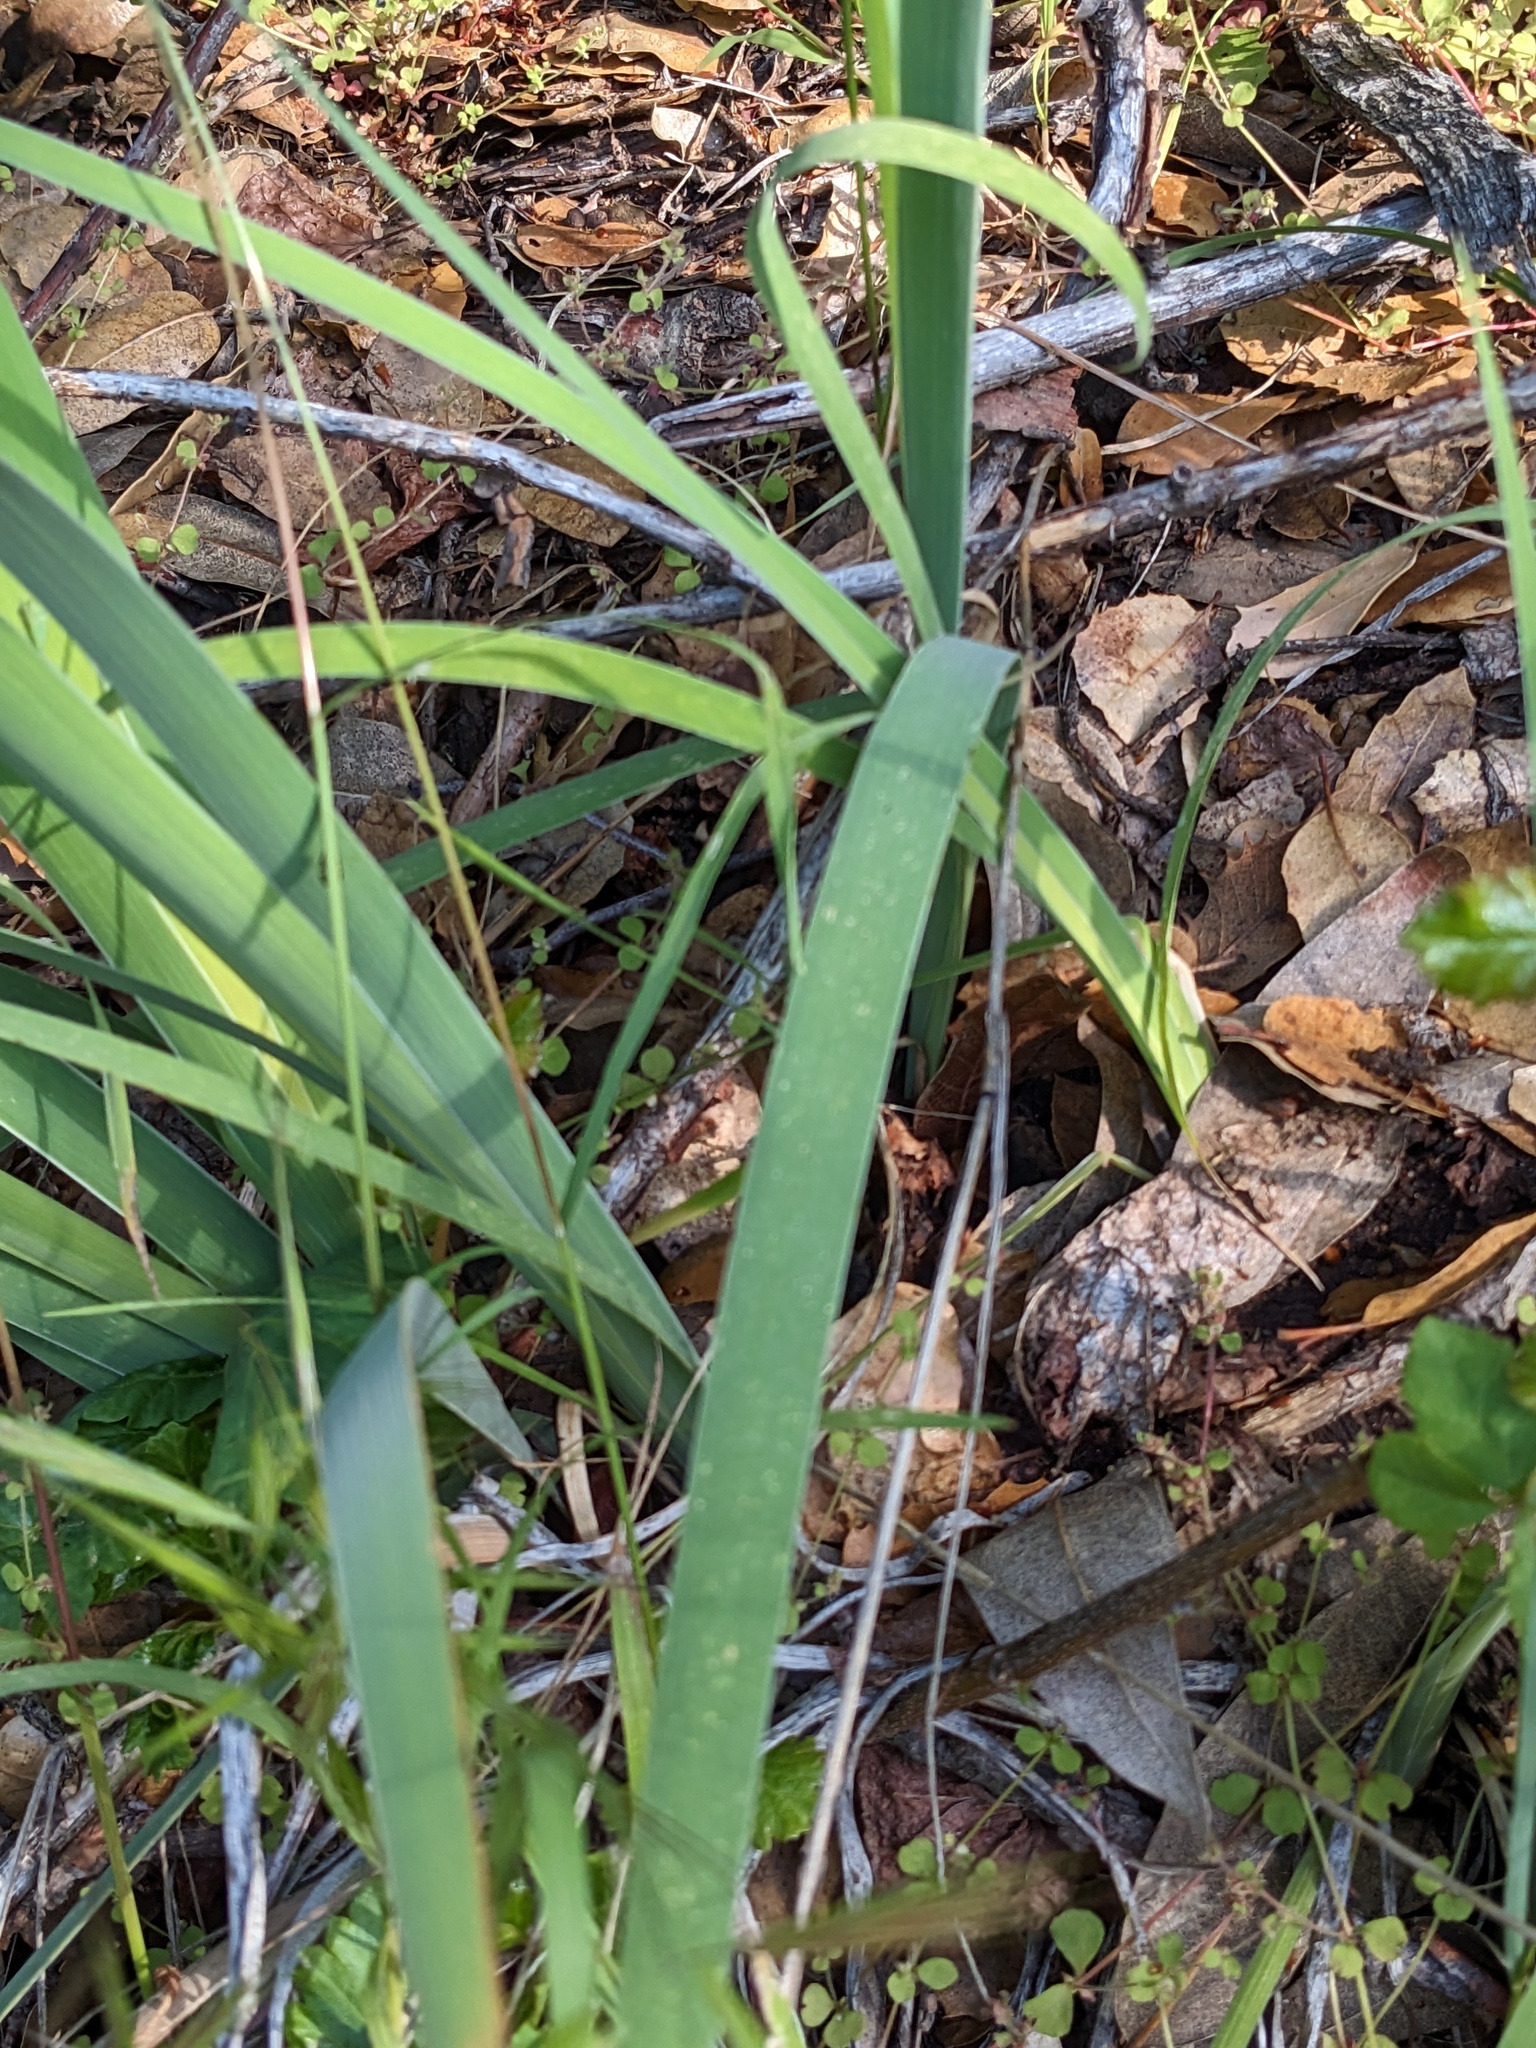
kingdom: Plantae
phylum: Tracheophyta
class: Liliopsida
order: Asparagales
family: Iridaceae
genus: Iris
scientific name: Iris munzii
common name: Munz's iris
